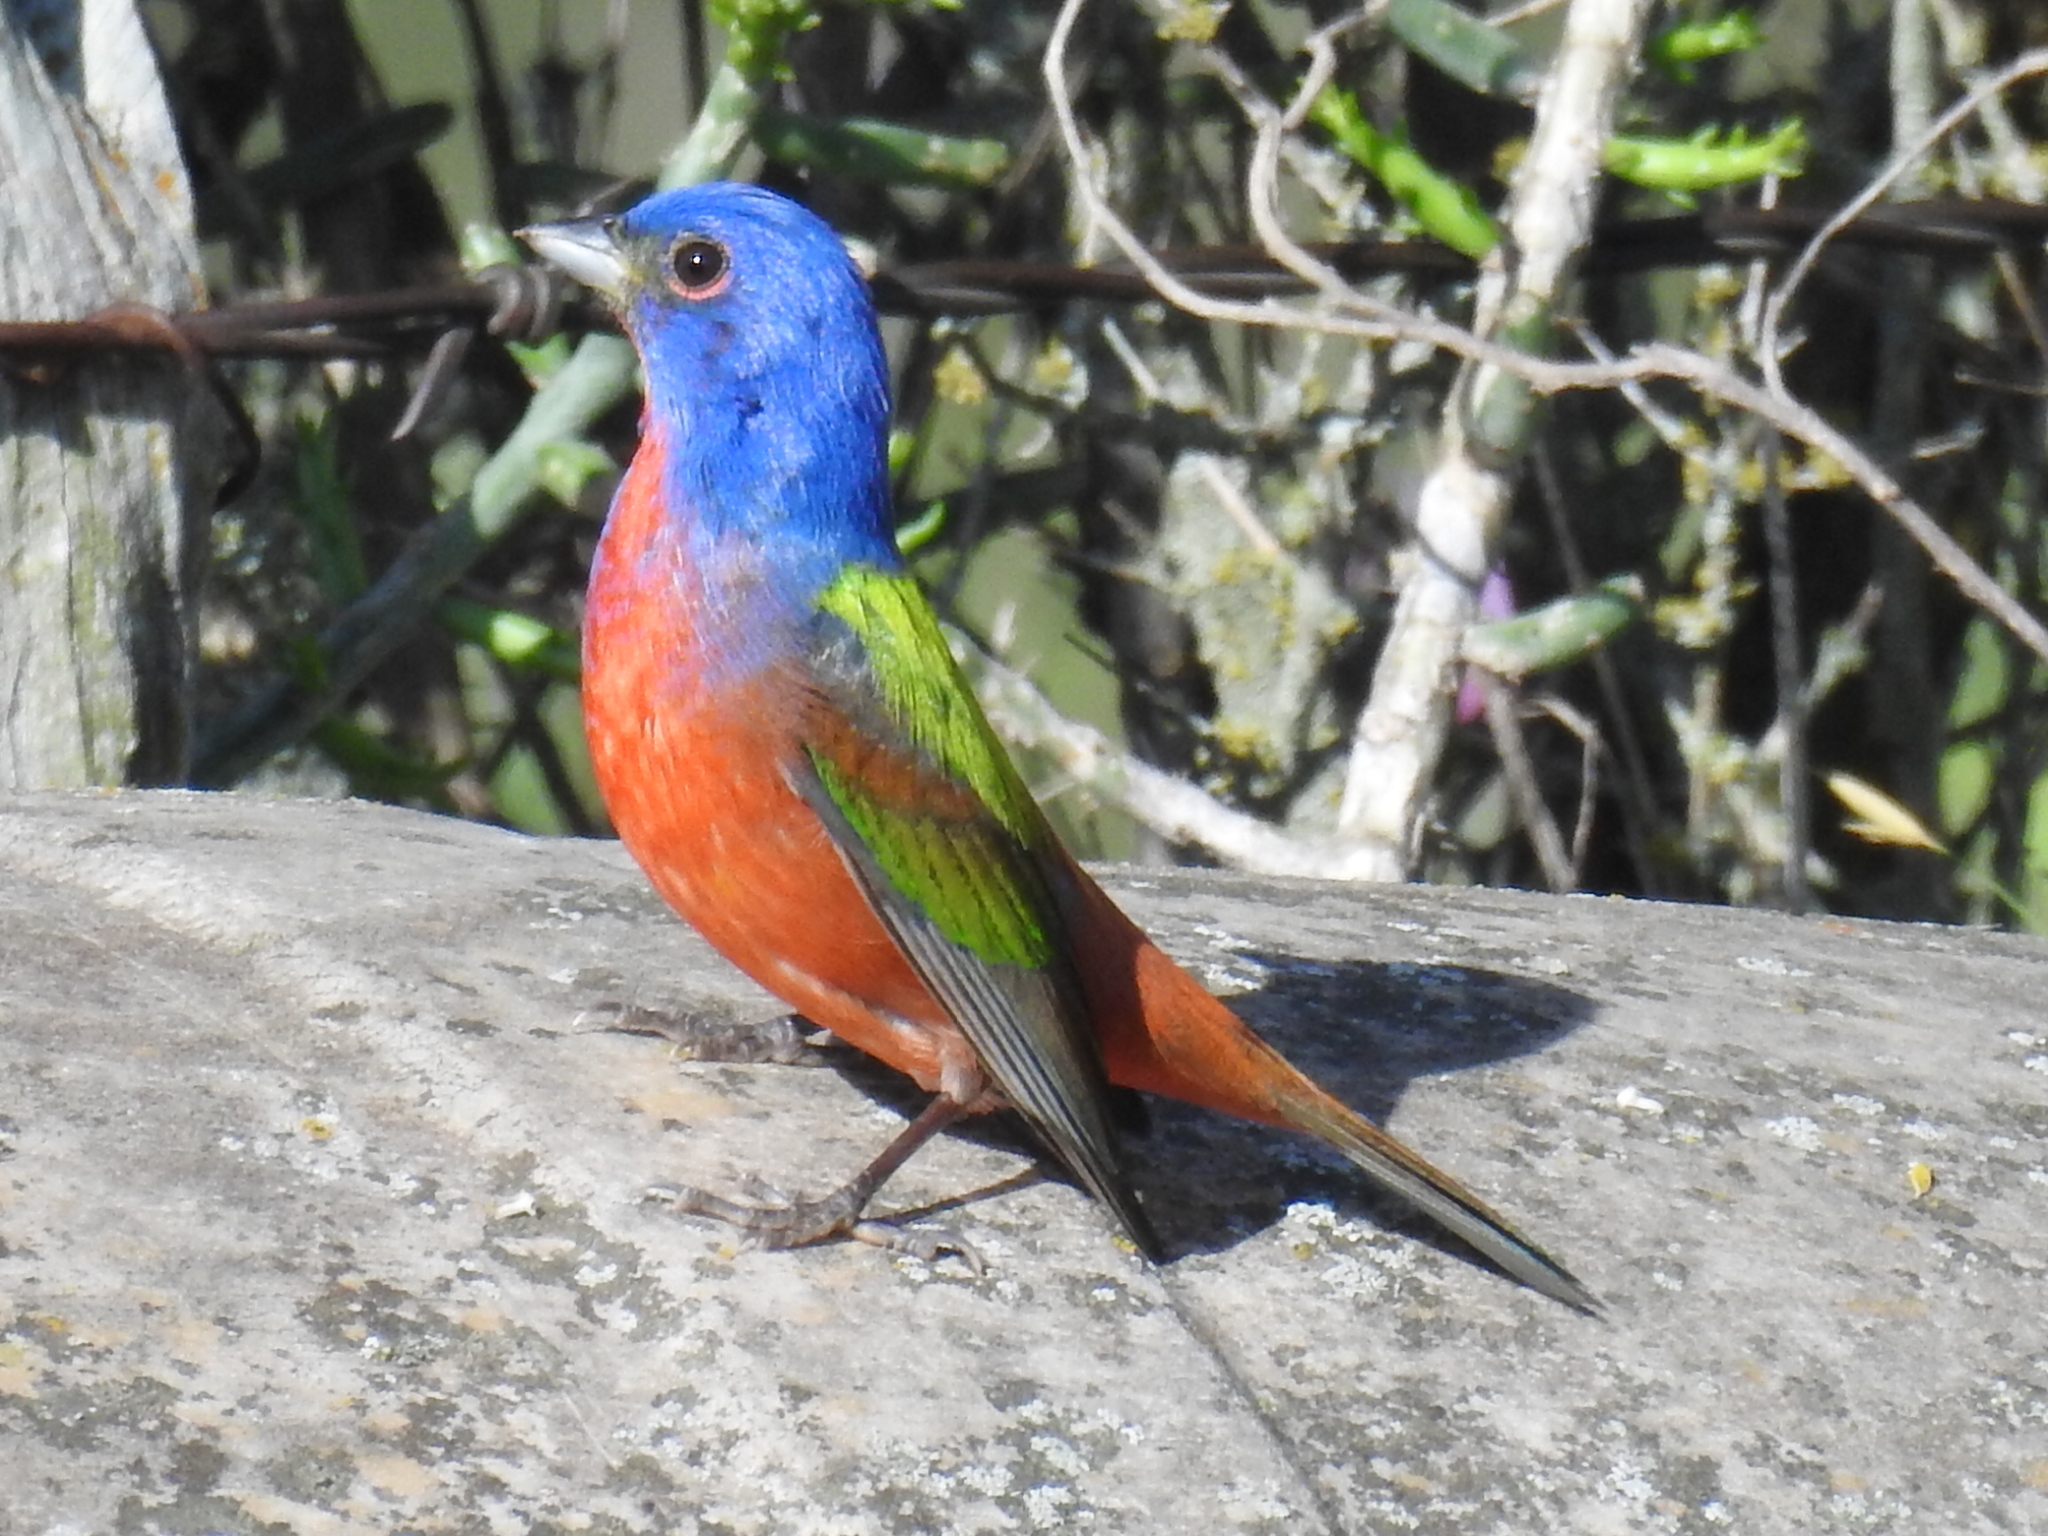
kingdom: Animalia
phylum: Chordata
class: Aves
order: Passeriformes
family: Cardinalidae
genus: Passerina
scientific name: Passerina ciris
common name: Painted bunting
